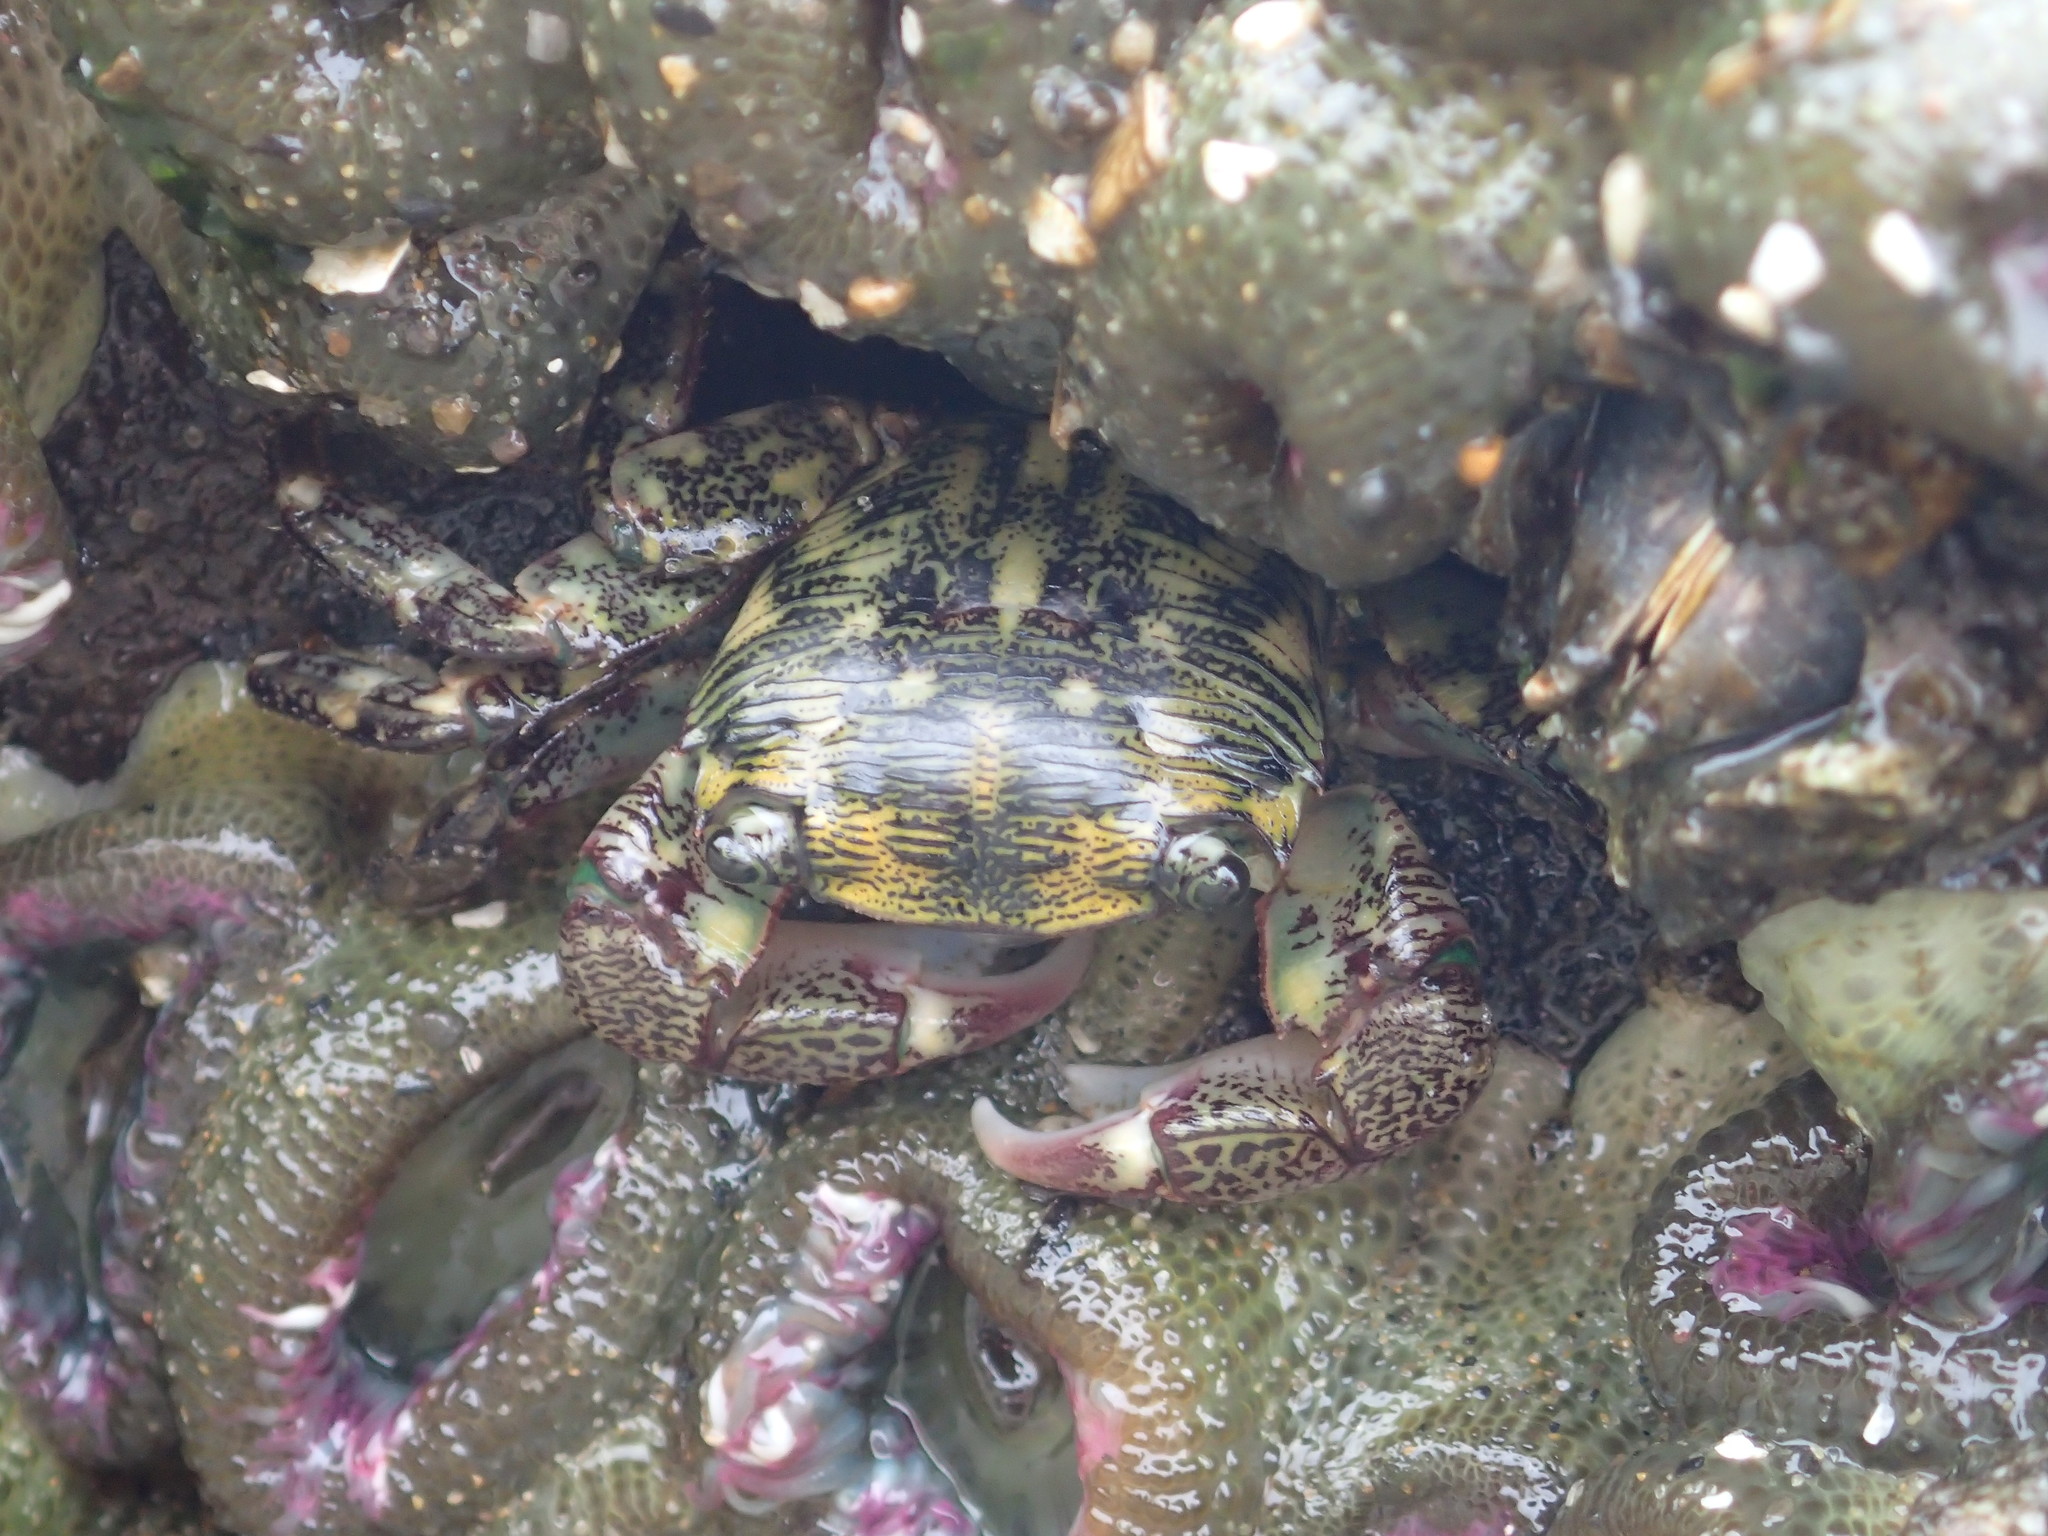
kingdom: Animalia
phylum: Arthropoda
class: Malacostraca
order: Decapoda
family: Grapsidae
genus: Pachygrapsus
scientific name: Pachygrapsus crassipes
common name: Striped shore crab
